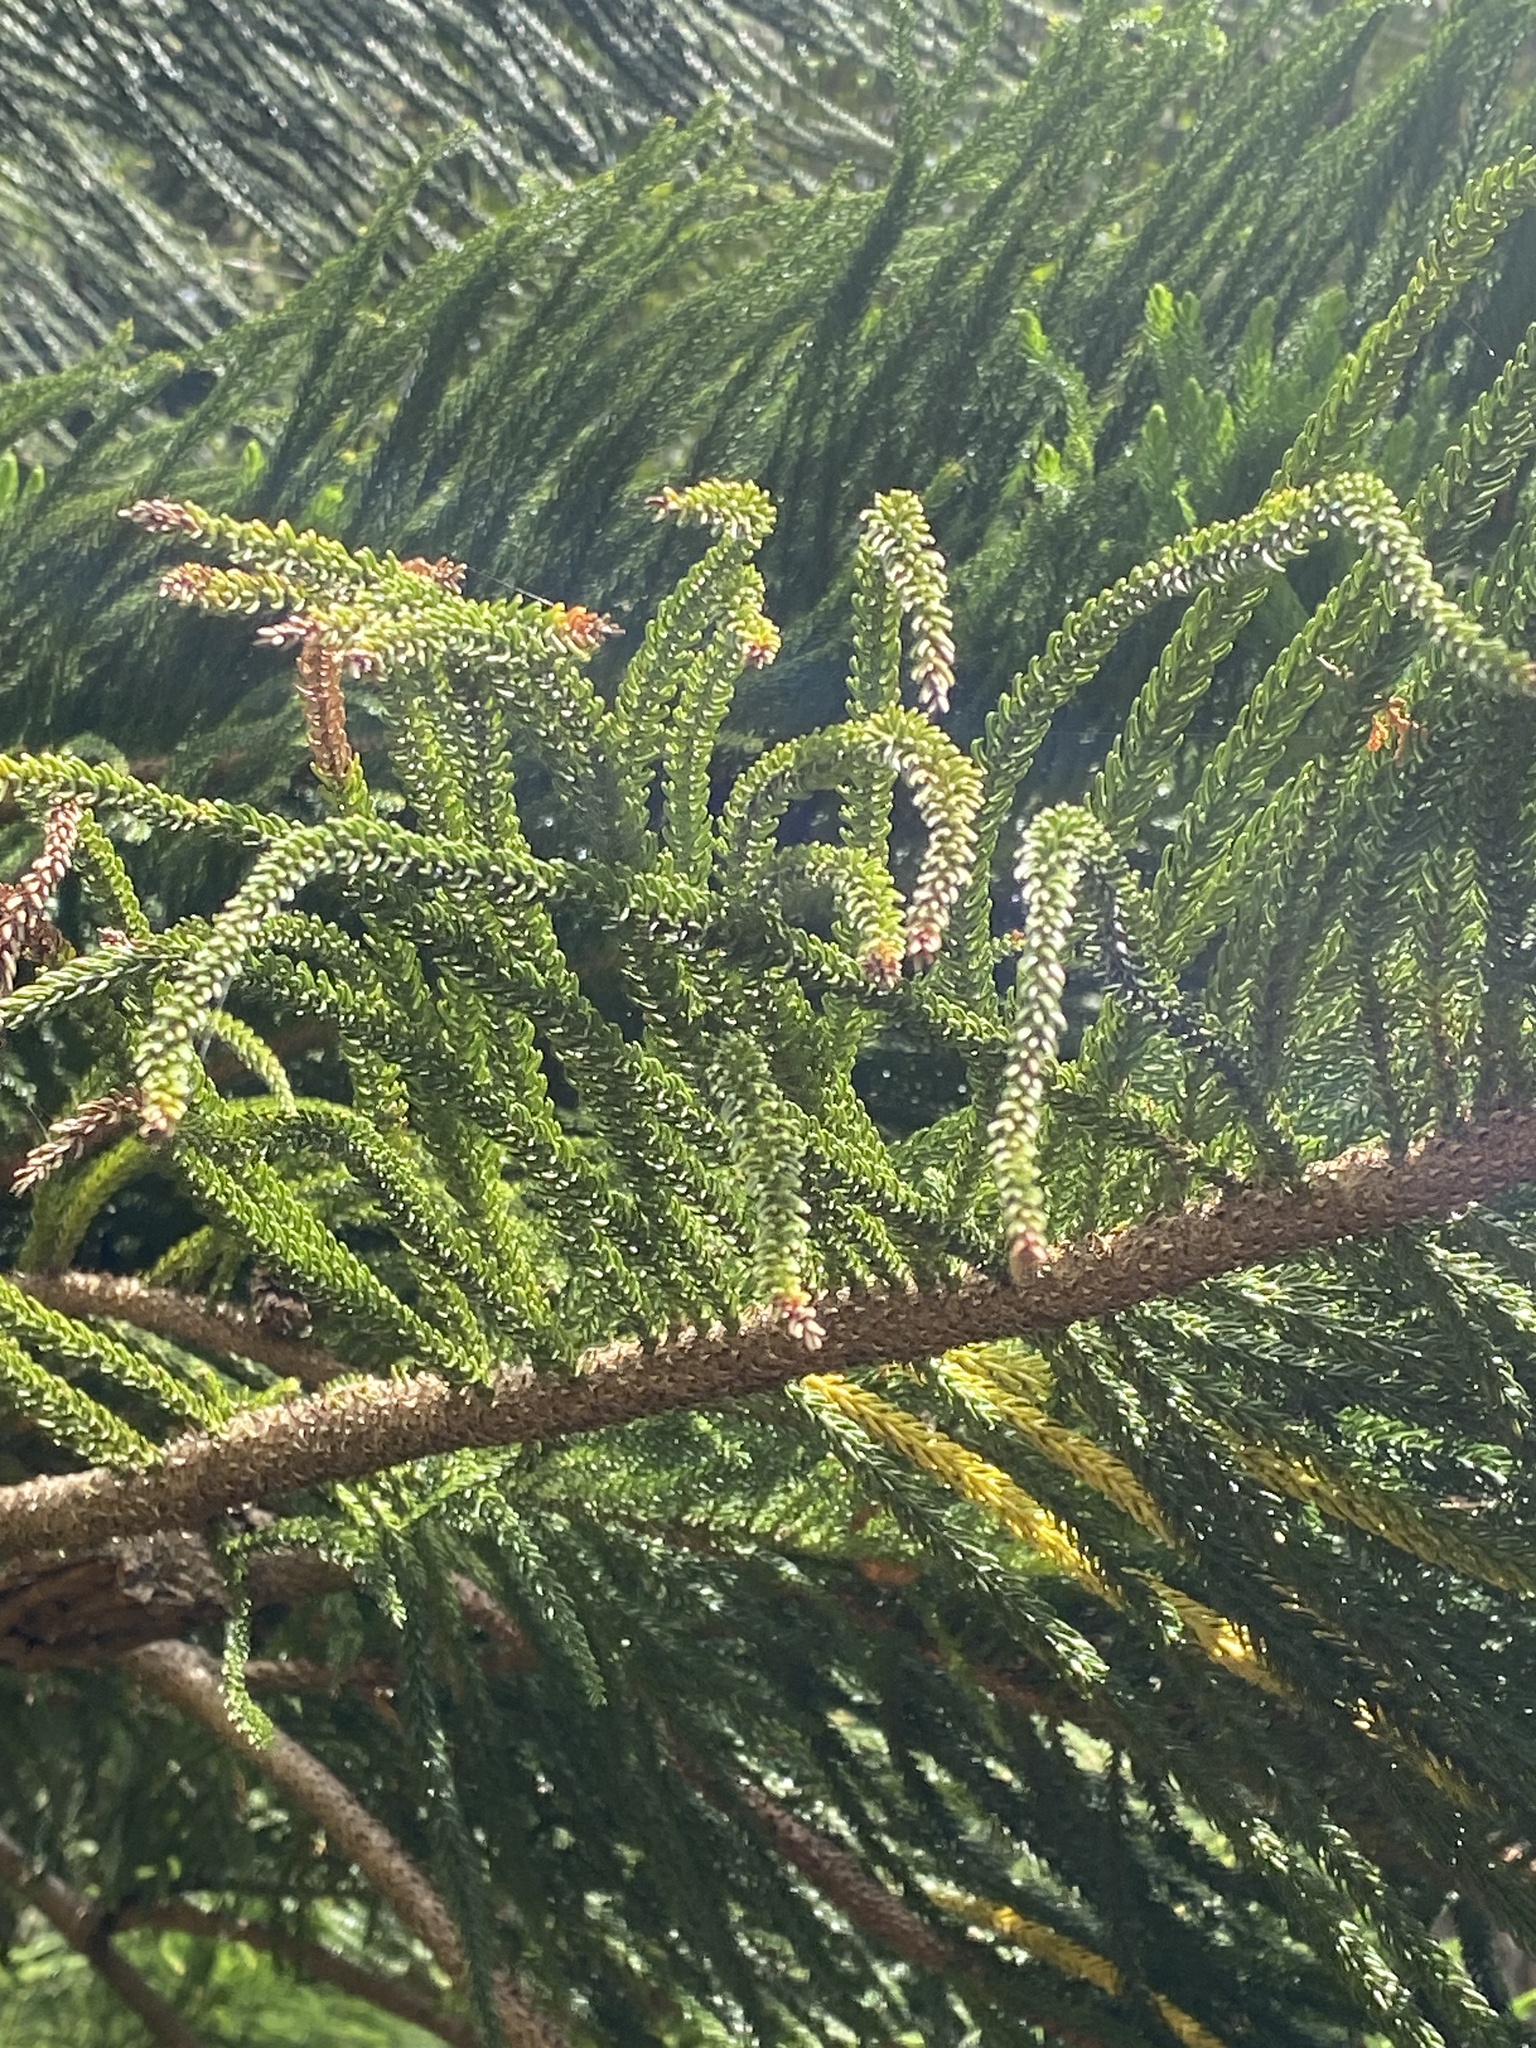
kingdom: Plantae
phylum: Tracheophyta
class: Pinopsida
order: Pinales
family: Araucariaceae
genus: Araucaria
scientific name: Araucaria columnaris
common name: Coral reef araucaria
